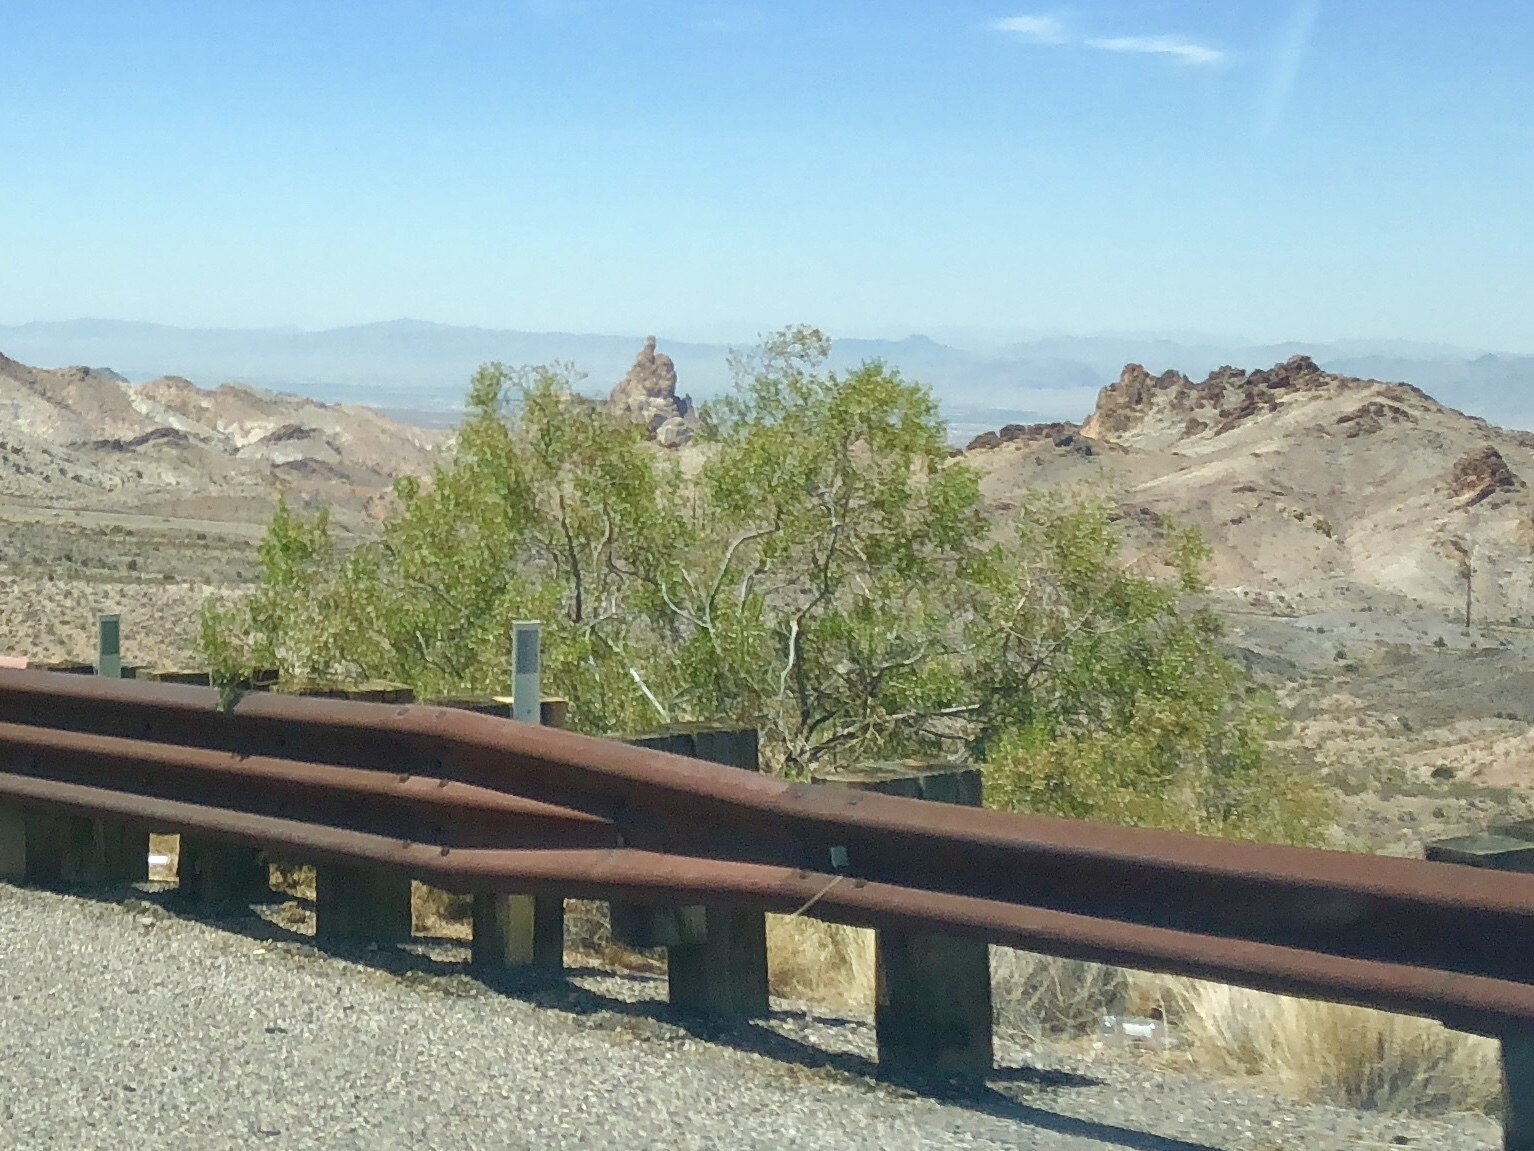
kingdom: Plantae
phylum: Tracheophyta
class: Magnoliopsida
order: Zygophyllales
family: Zygophyllaceae
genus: Larrea
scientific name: Larrea tridentata
